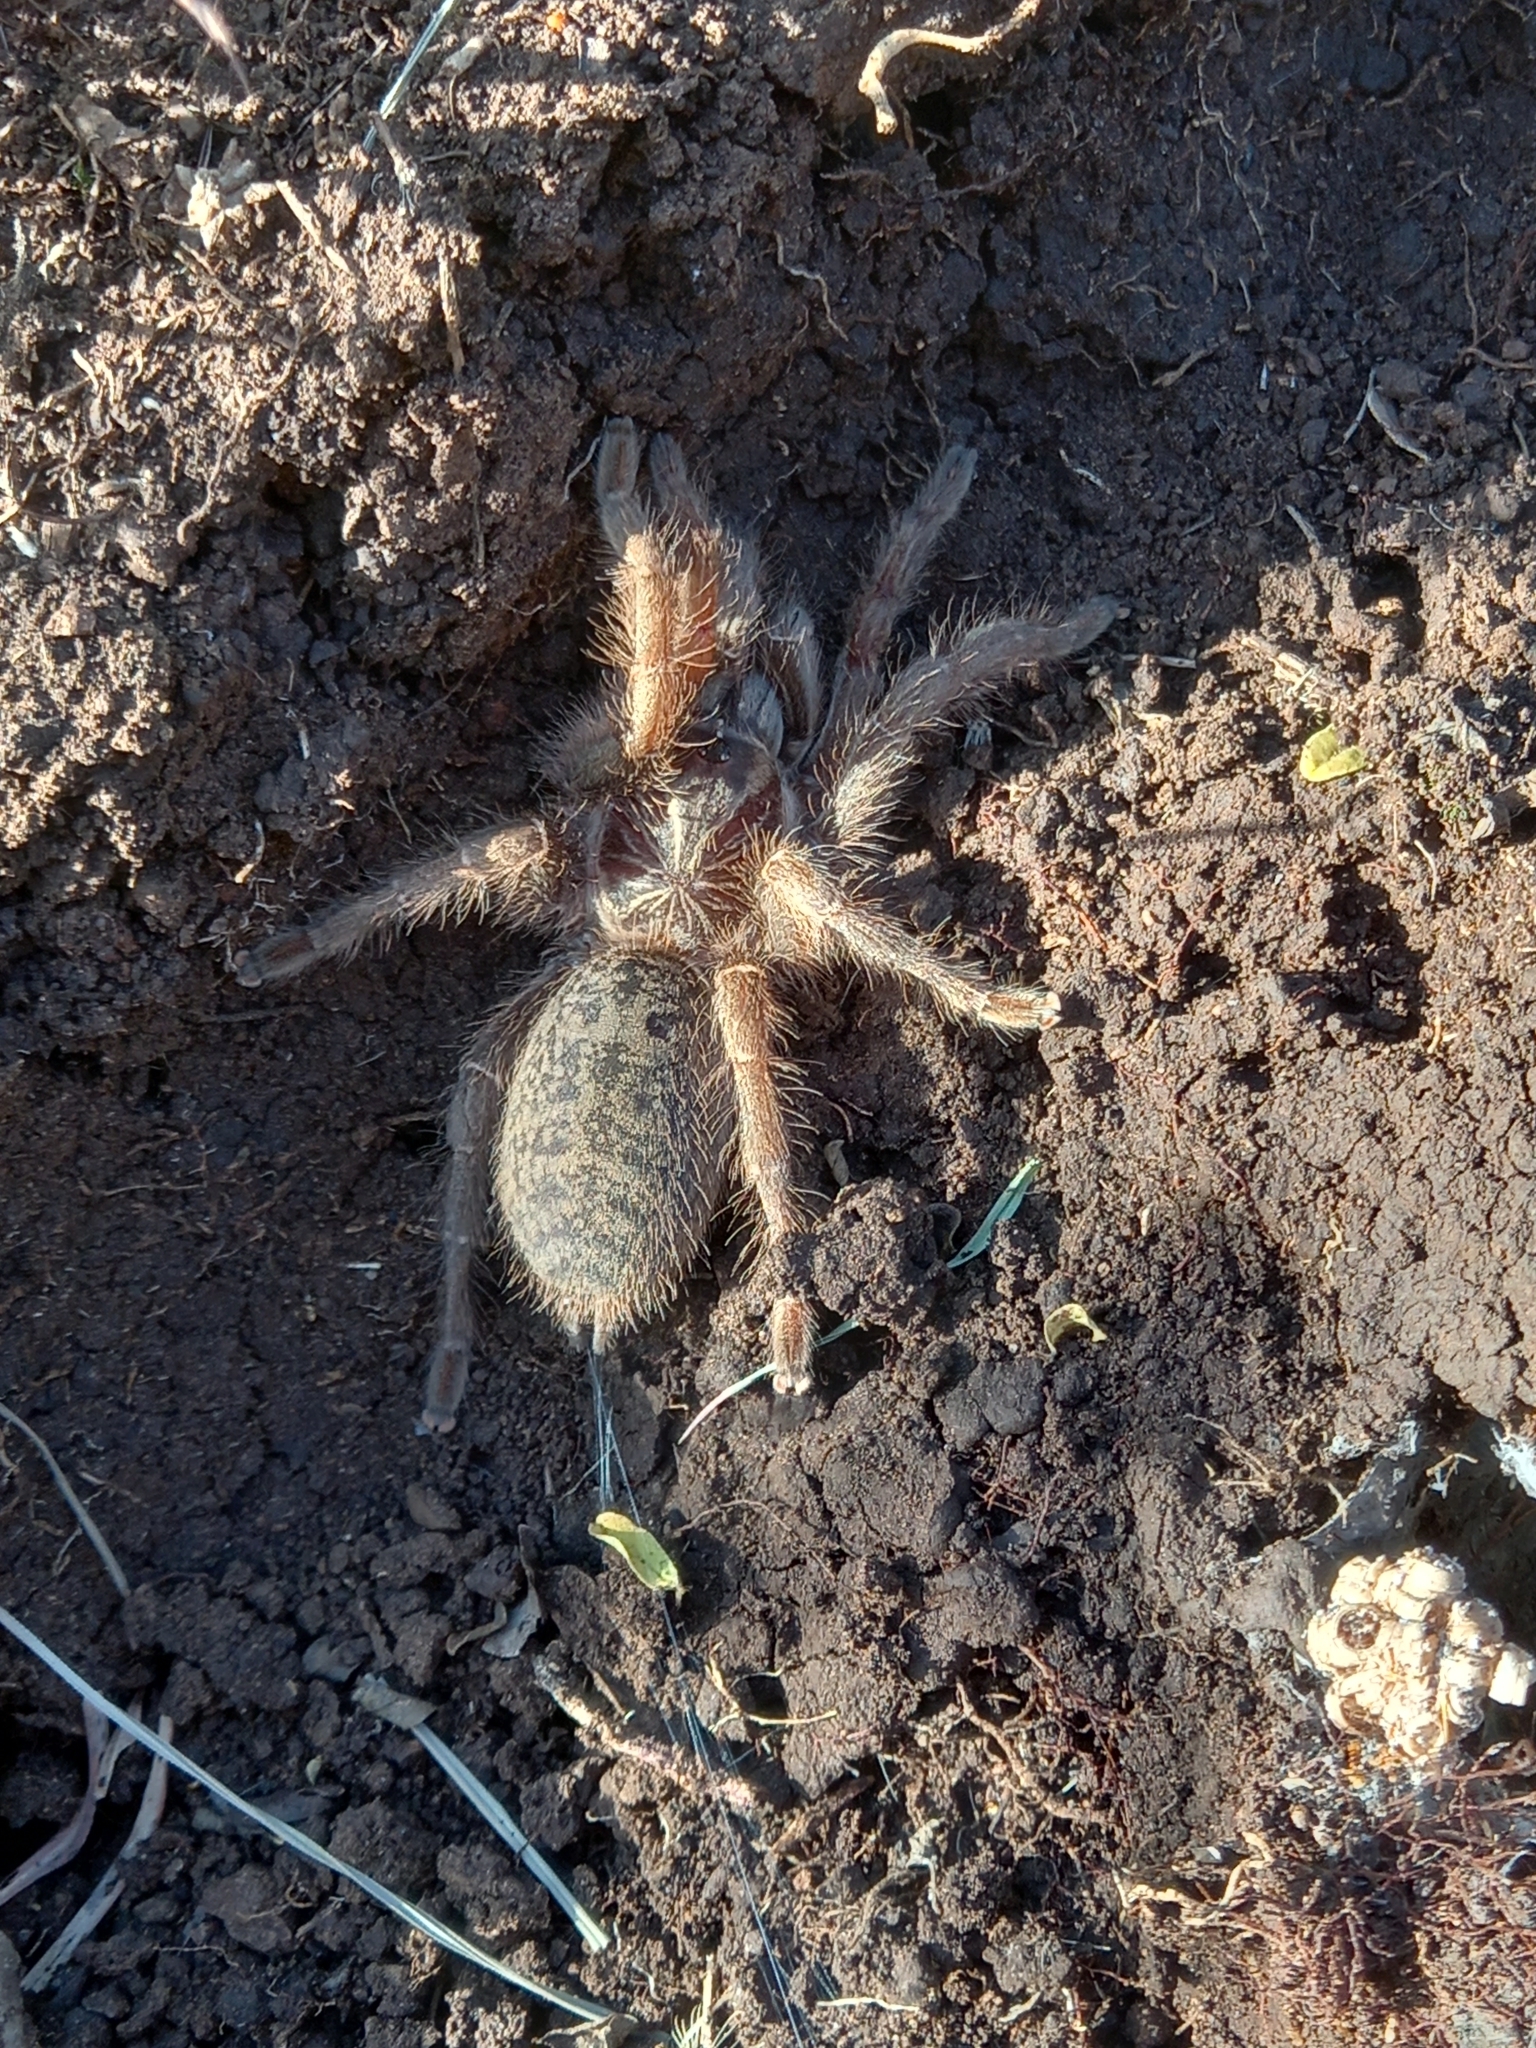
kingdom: Animalia
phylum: Arthropoda
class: Arachnida
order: Araneae
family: Theraphosidae
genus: Harpactira
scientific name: Harpactira tigrina
